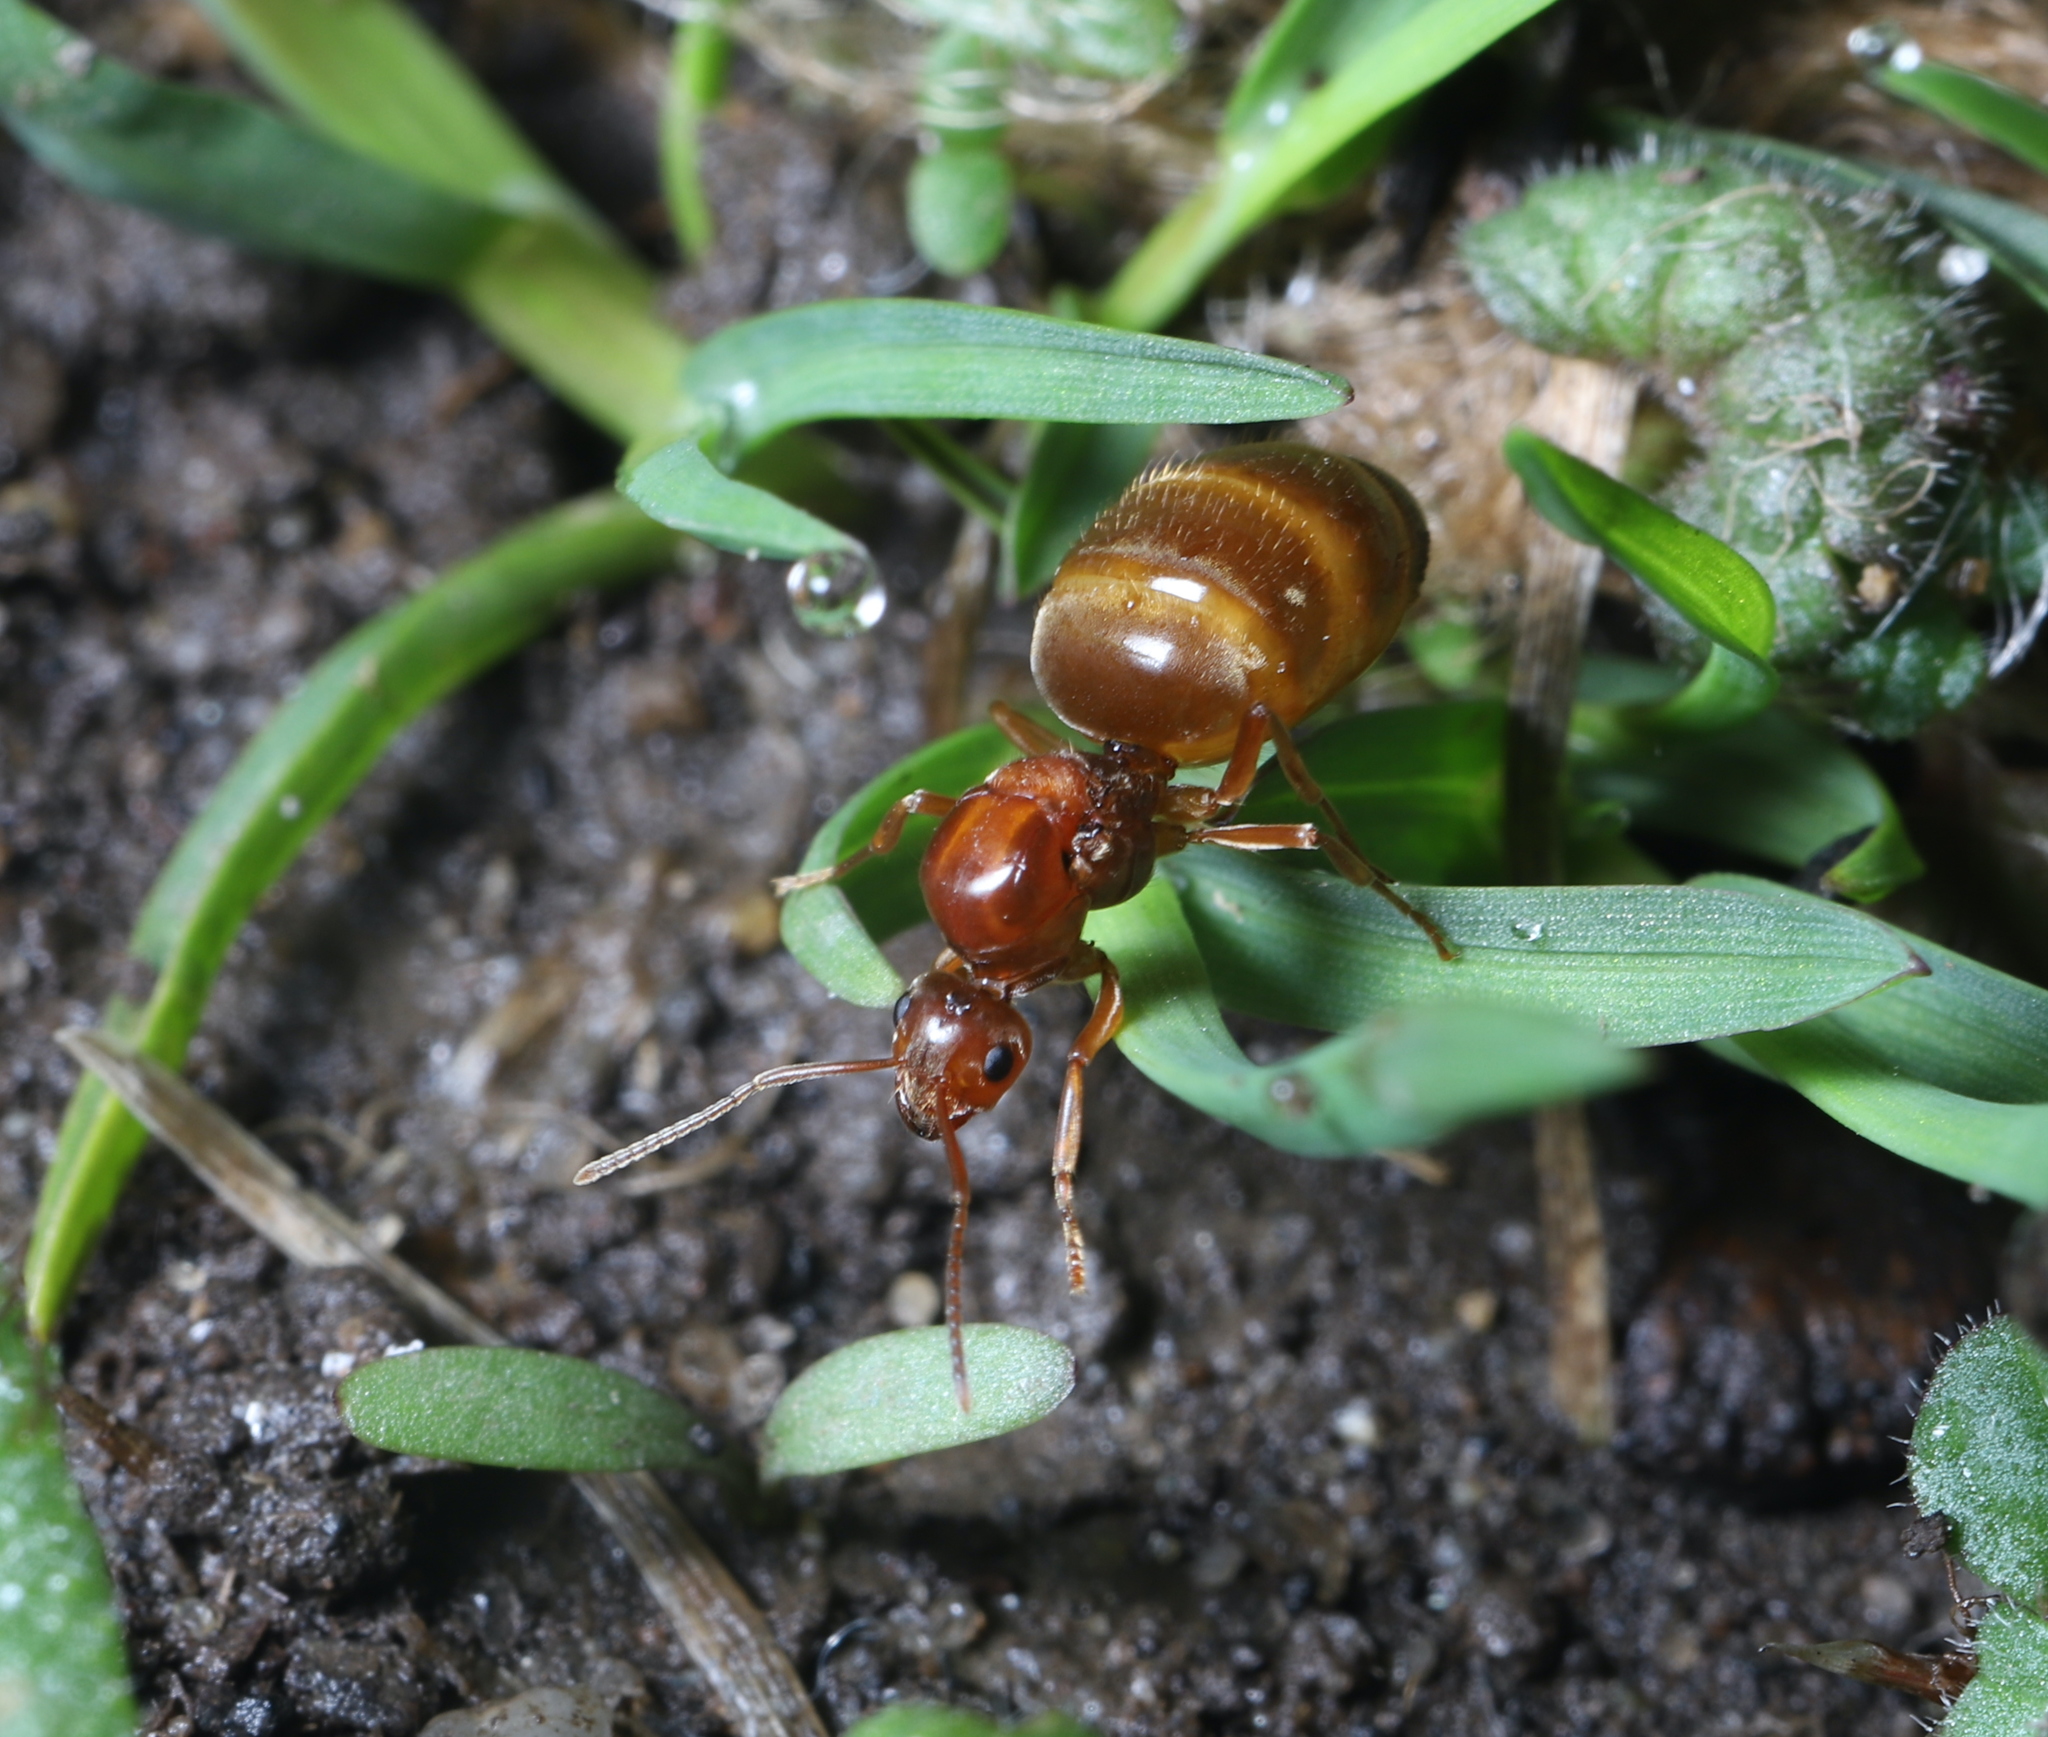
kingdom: Animalia
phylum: Arthropoda
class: Insecta
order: Hymenoptera
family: Formicidae
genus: Prenolepis
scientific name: Prenolepis imparis
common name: Small honey ant
